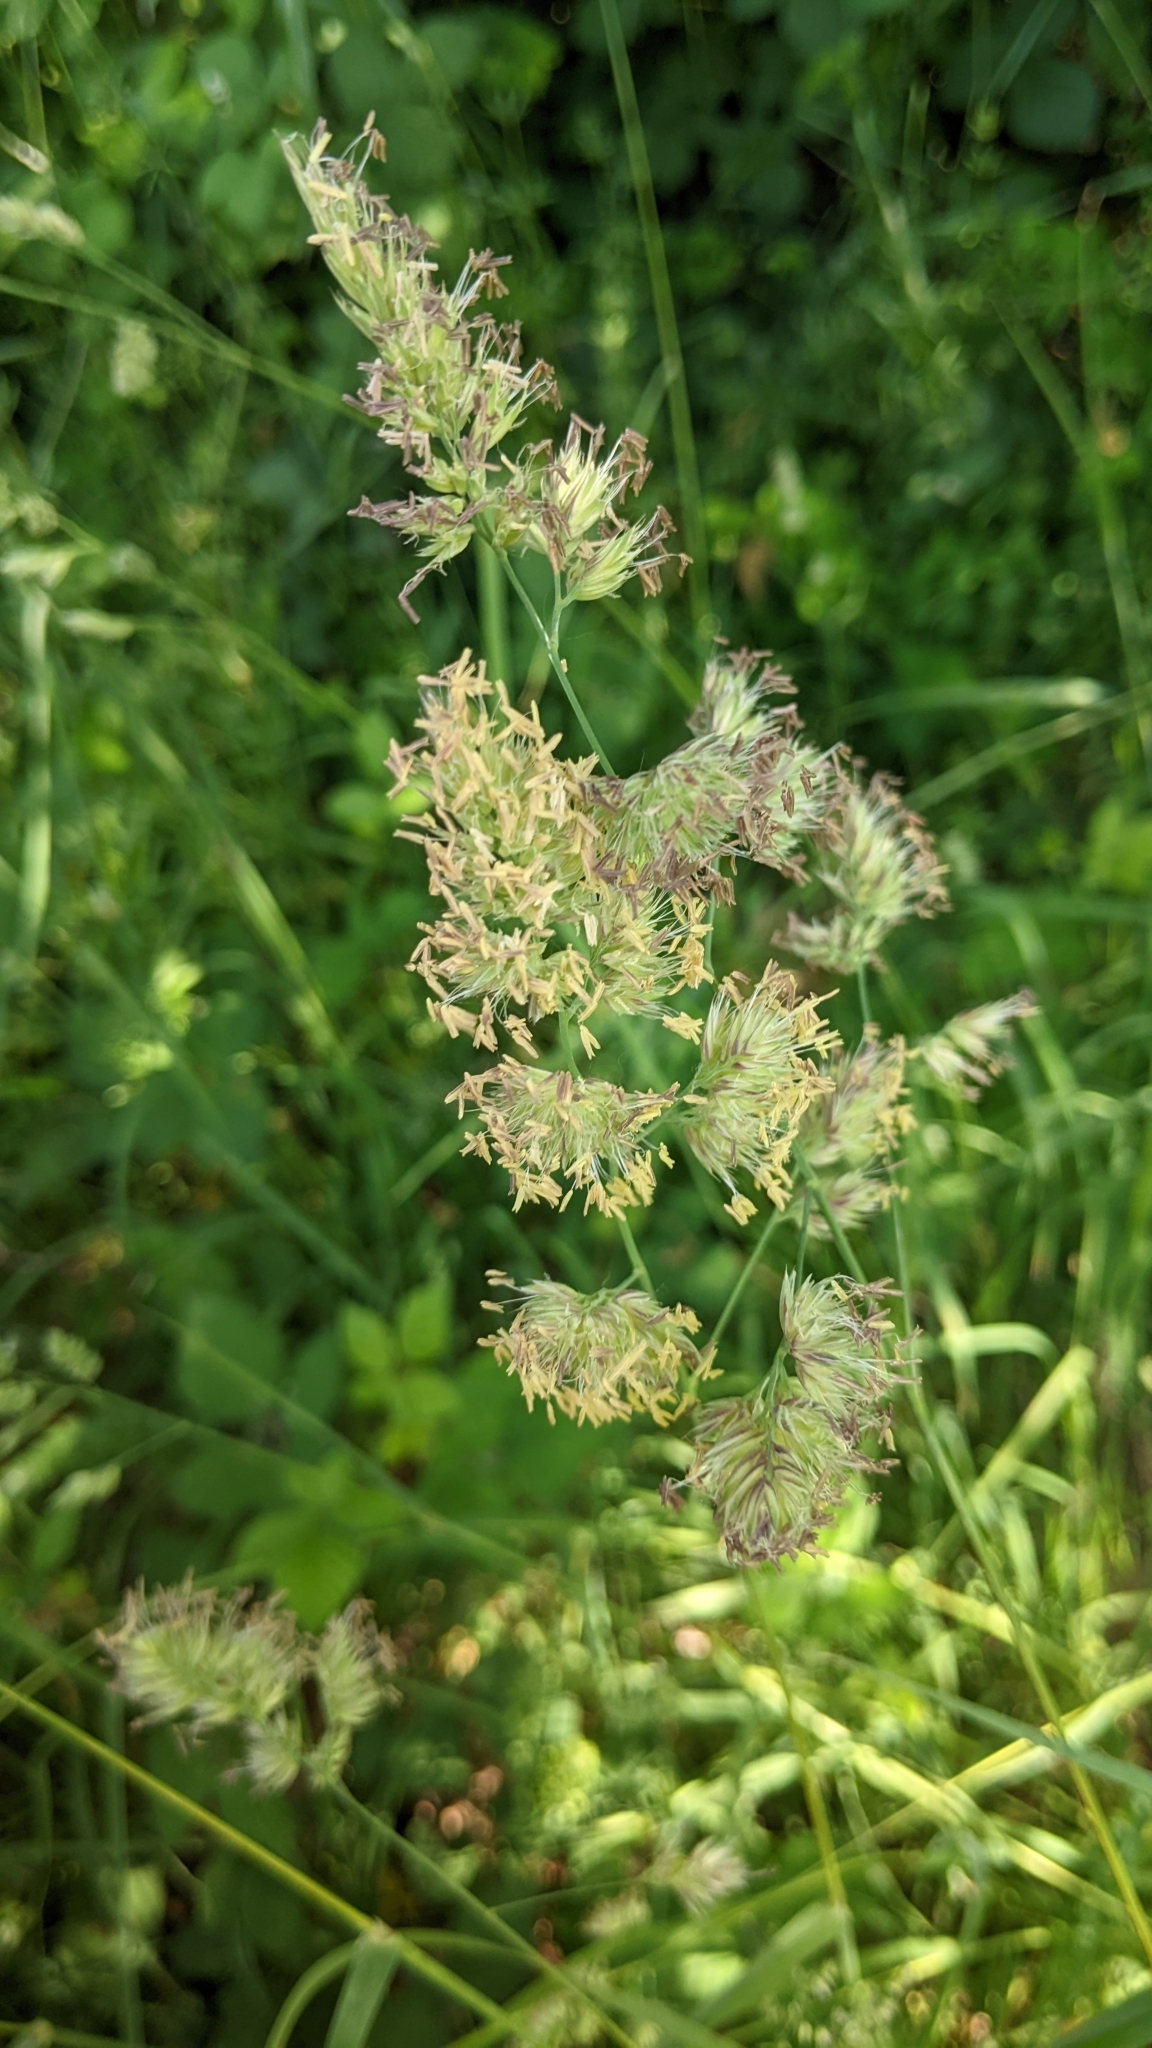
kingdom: Plantae
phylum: Tracheophyta
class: Liliopsida
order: Poales
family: Poaceae
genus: Dactylis
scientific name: Dactylis glomerata
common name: Orchardgrass
